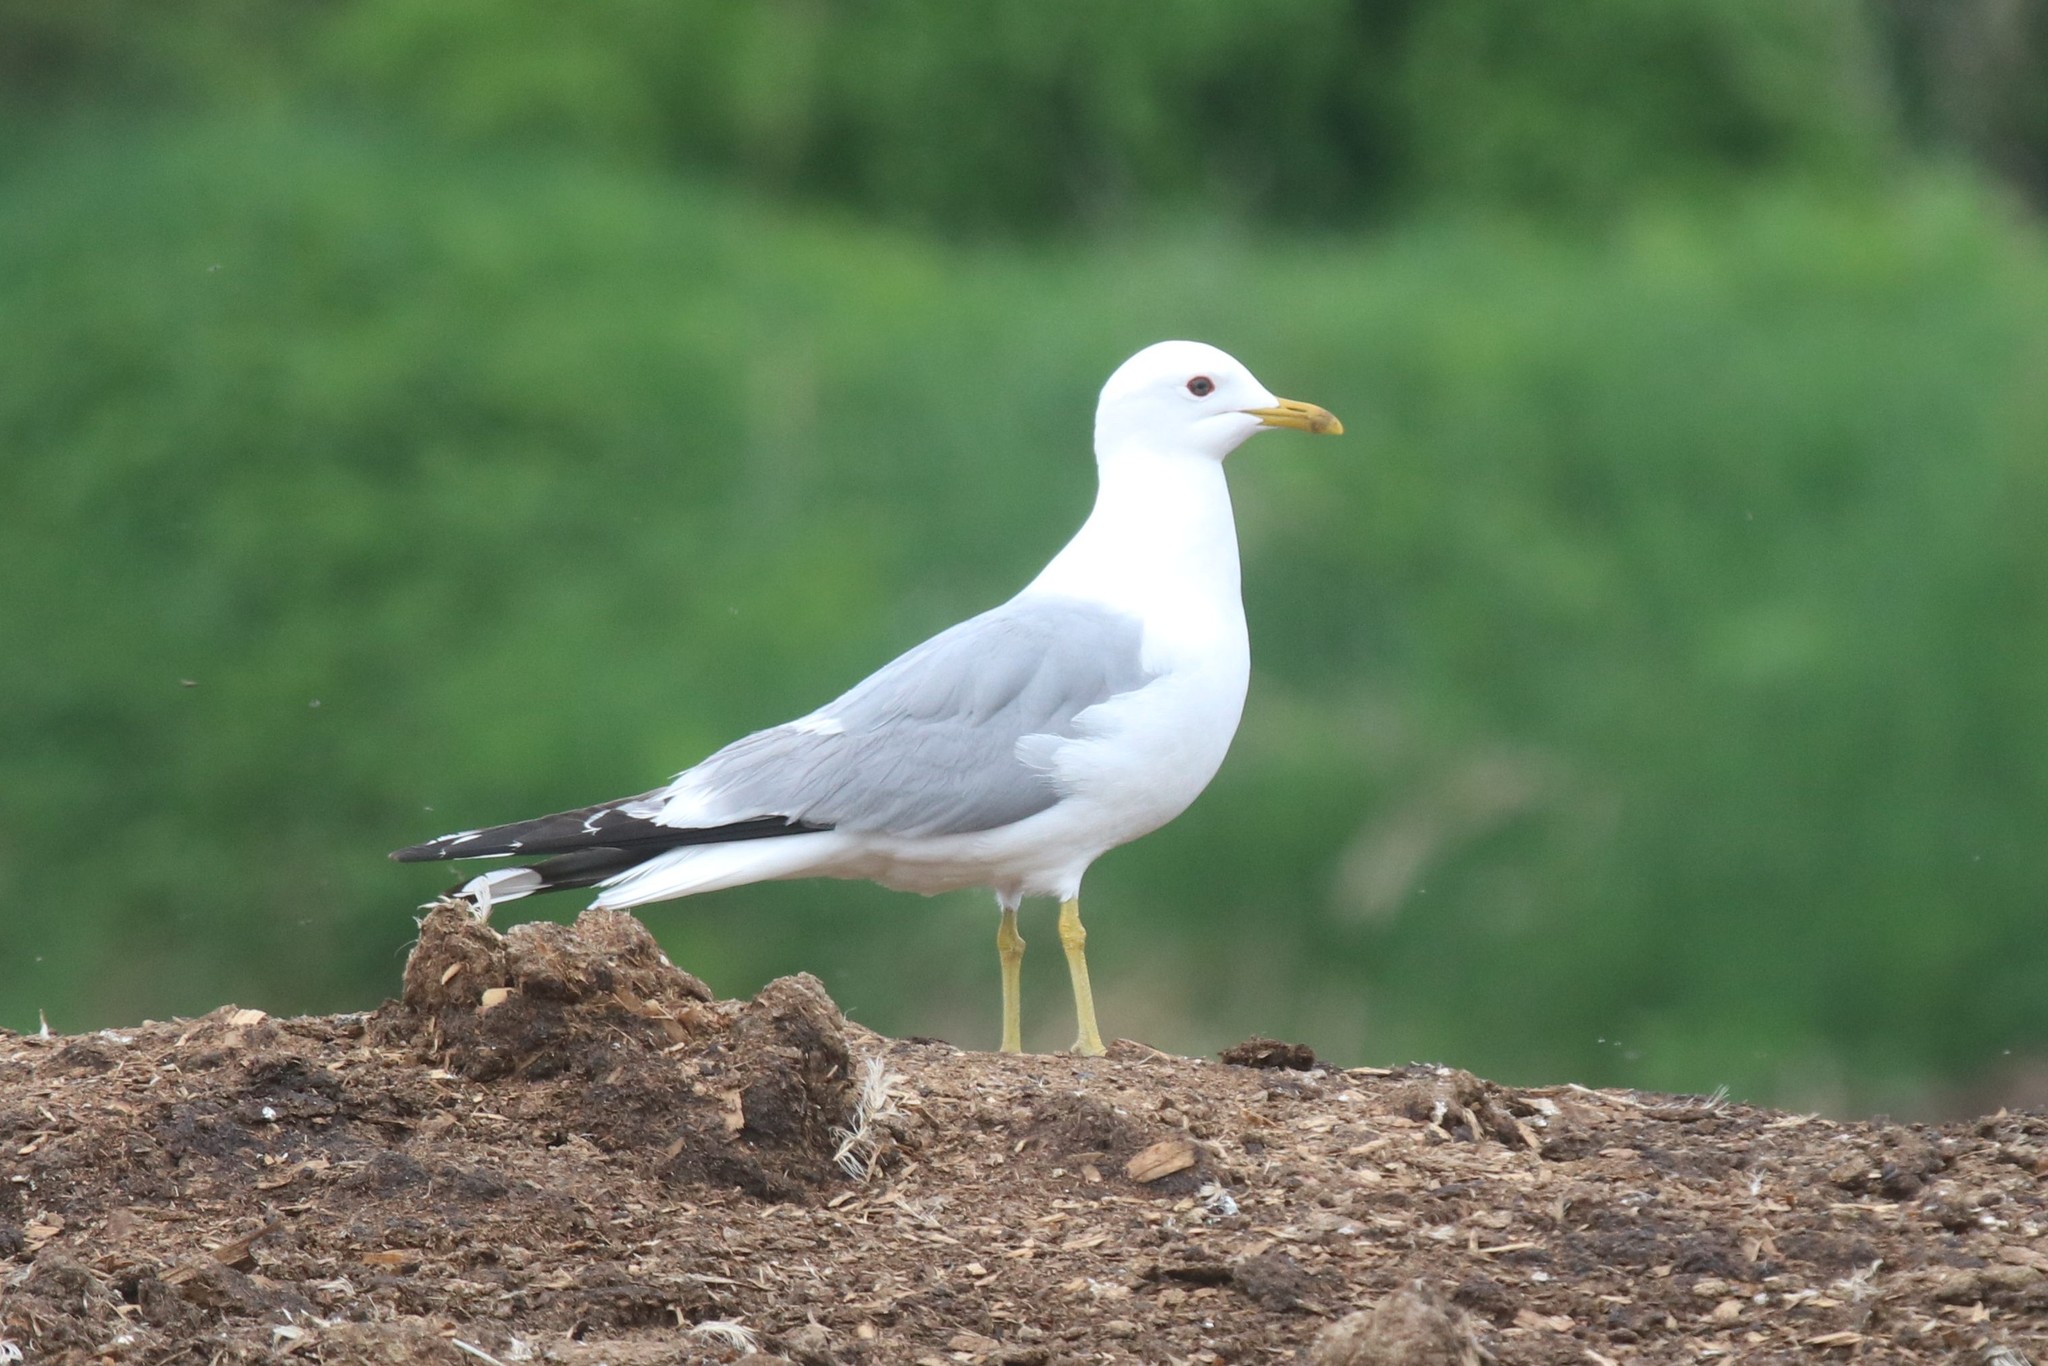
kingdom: Animalia
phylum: Chordata
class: Aves
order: Charadriiformes
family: Laridae
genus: Larus
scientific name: Larus canus
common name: Mew gull
